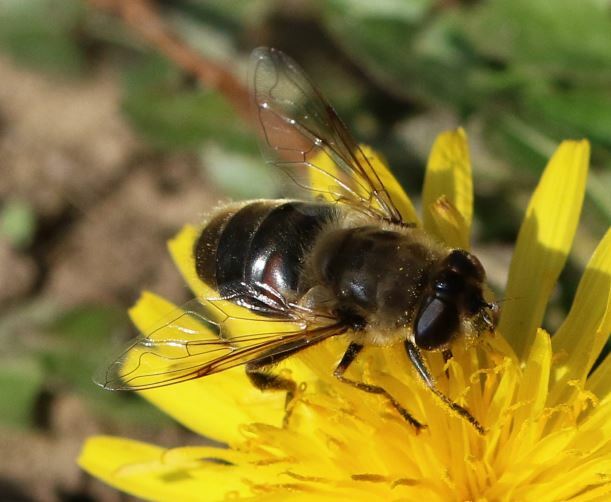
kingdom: Animalia
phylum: Arthropoda
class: Insecta
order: Diptera
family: Syrphidae
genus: Eristalis
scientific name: Eristalis tenax
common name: Drone fly
